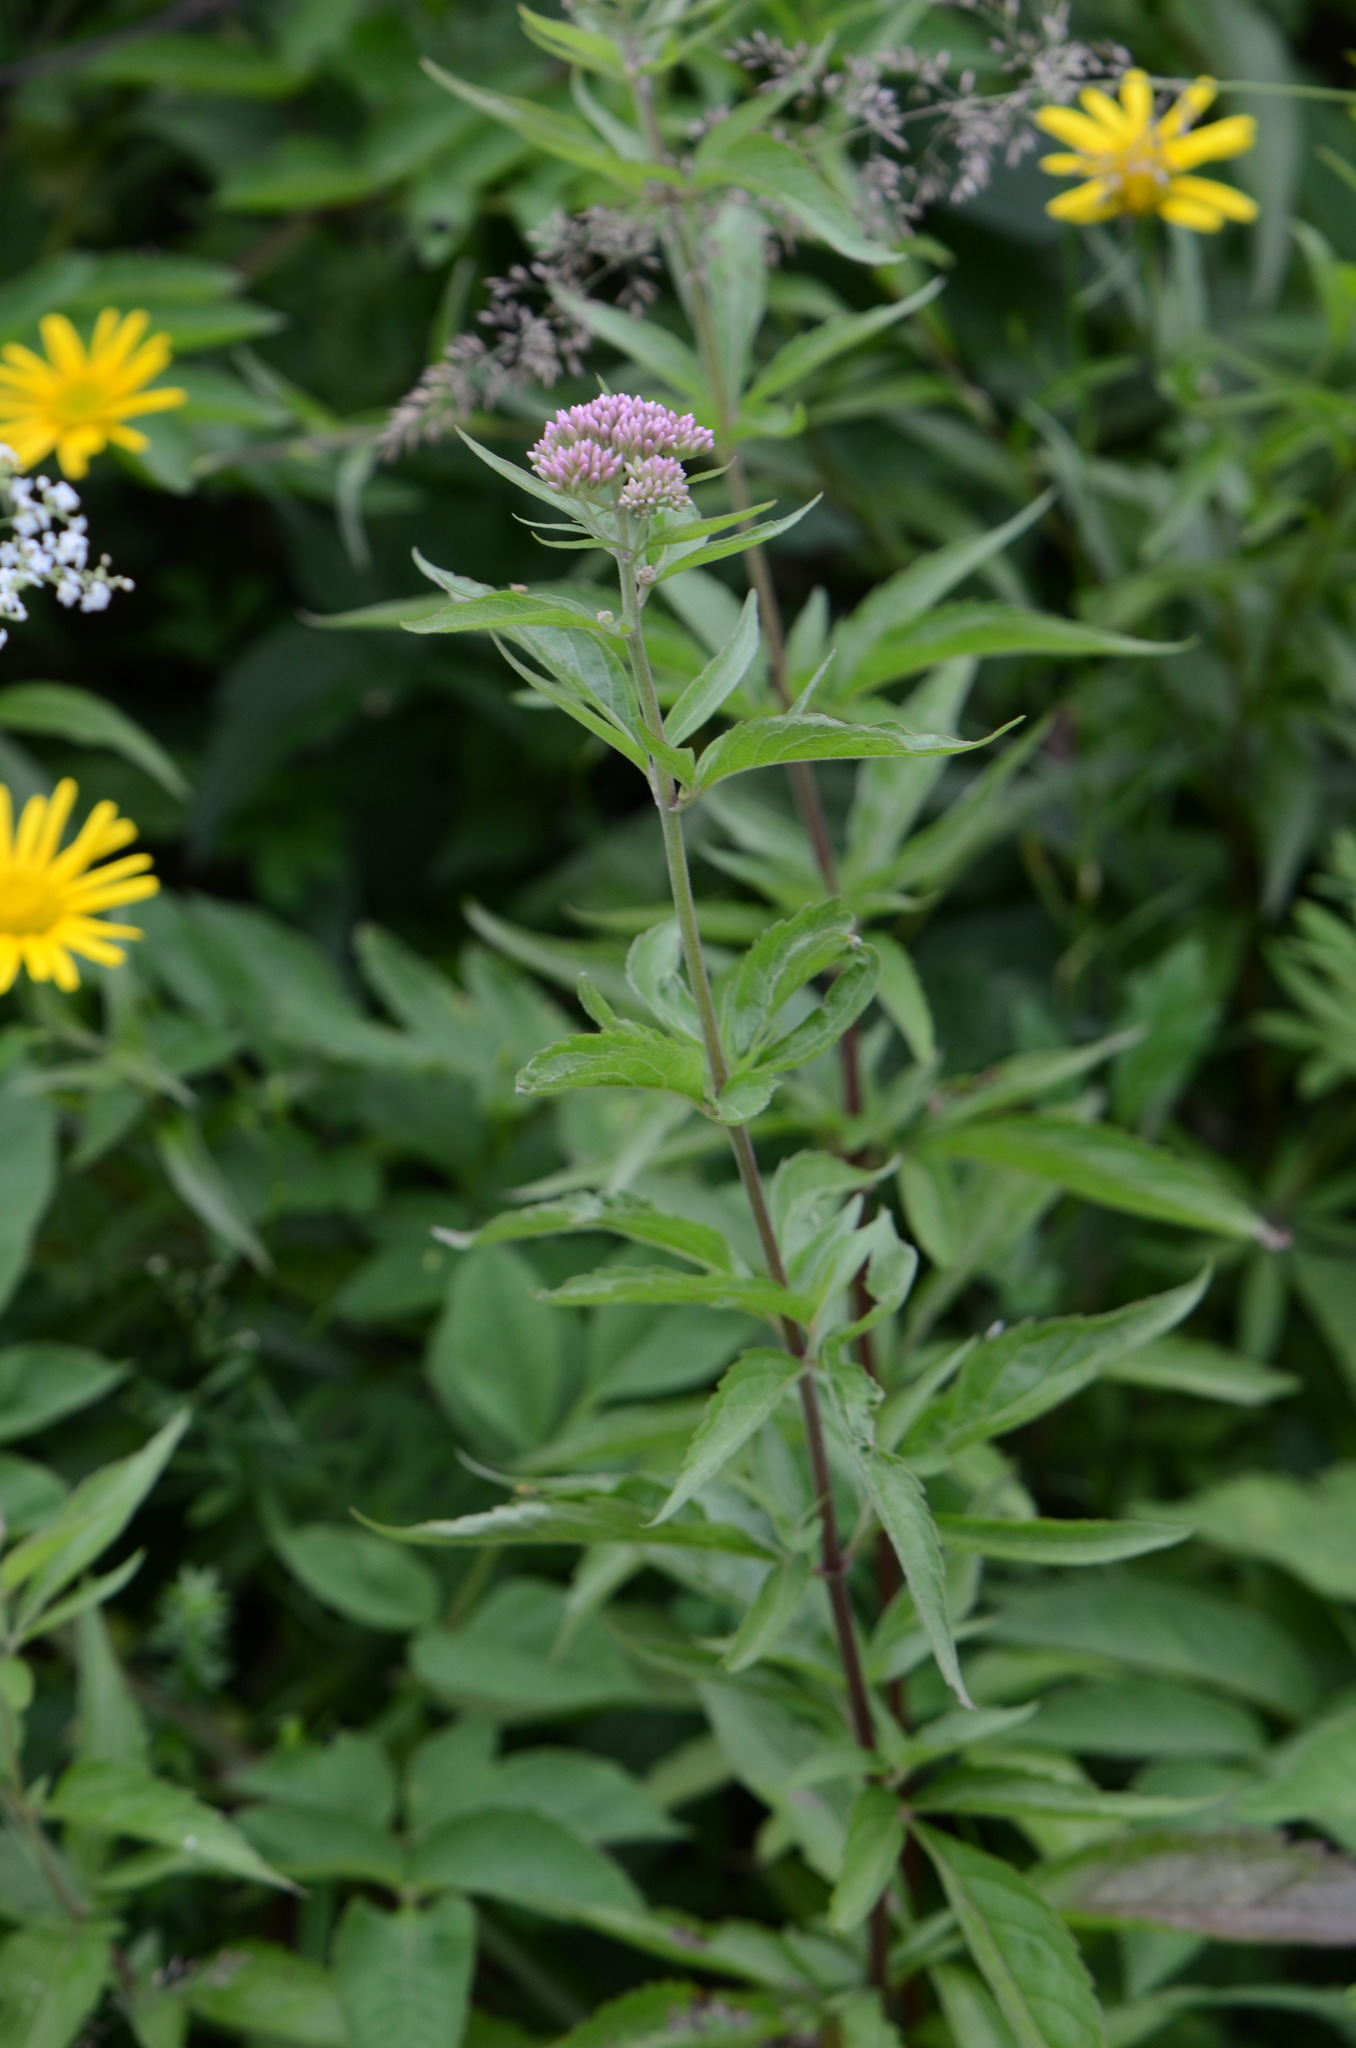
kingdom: Plantae
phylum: Tracheophyta
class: Magnoliopsida
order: Asterales
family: Asteraceae
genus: Eupatorium
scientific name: Eupatorium cannabinum
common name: Hemp-agrimony
